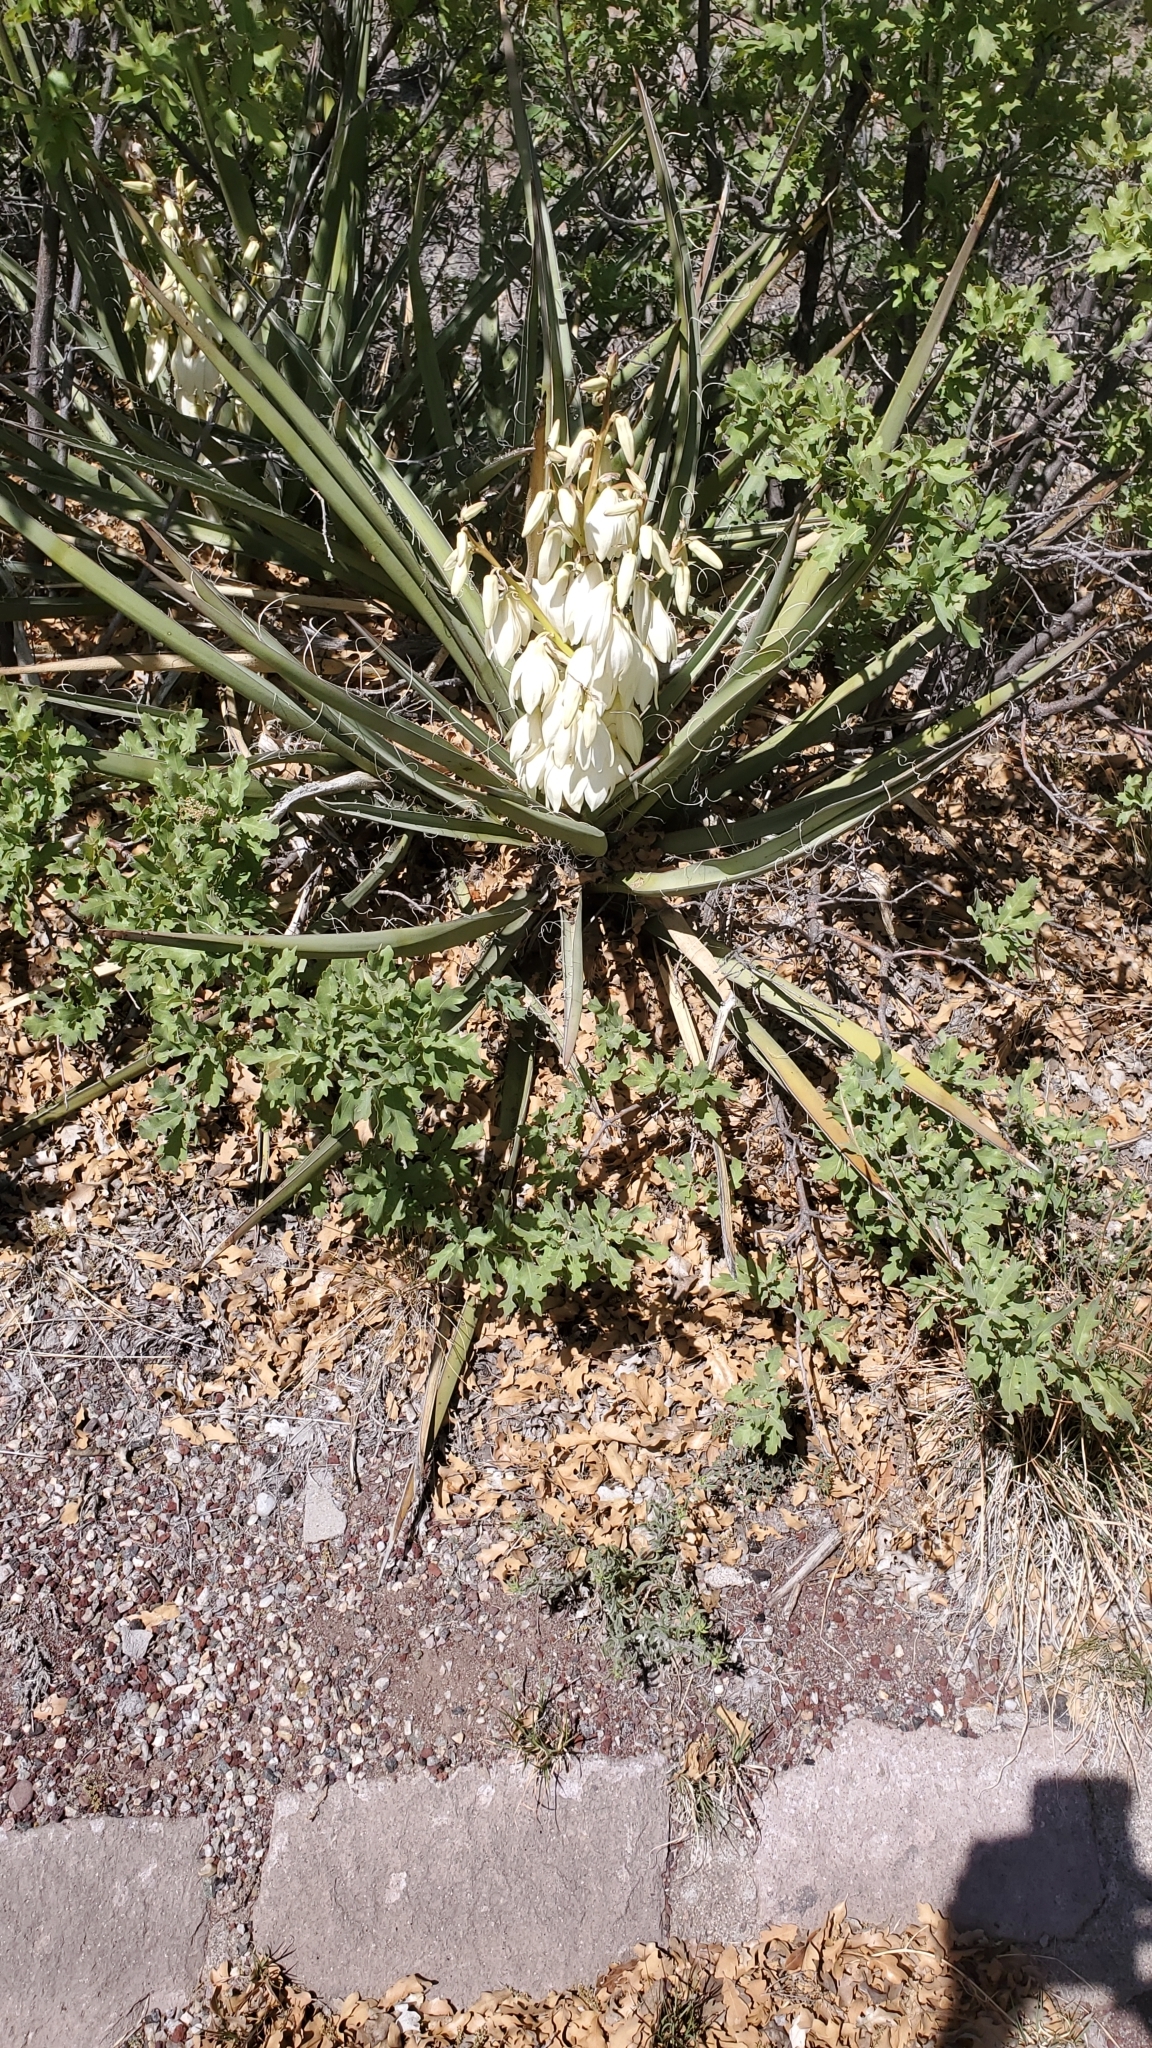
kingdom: Plantae
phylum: Tracheophyta
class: Liliopsida
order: Asparagales
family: Asparagaceae
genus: Yucca
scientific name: Yucca baccata
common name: Banana yucca
